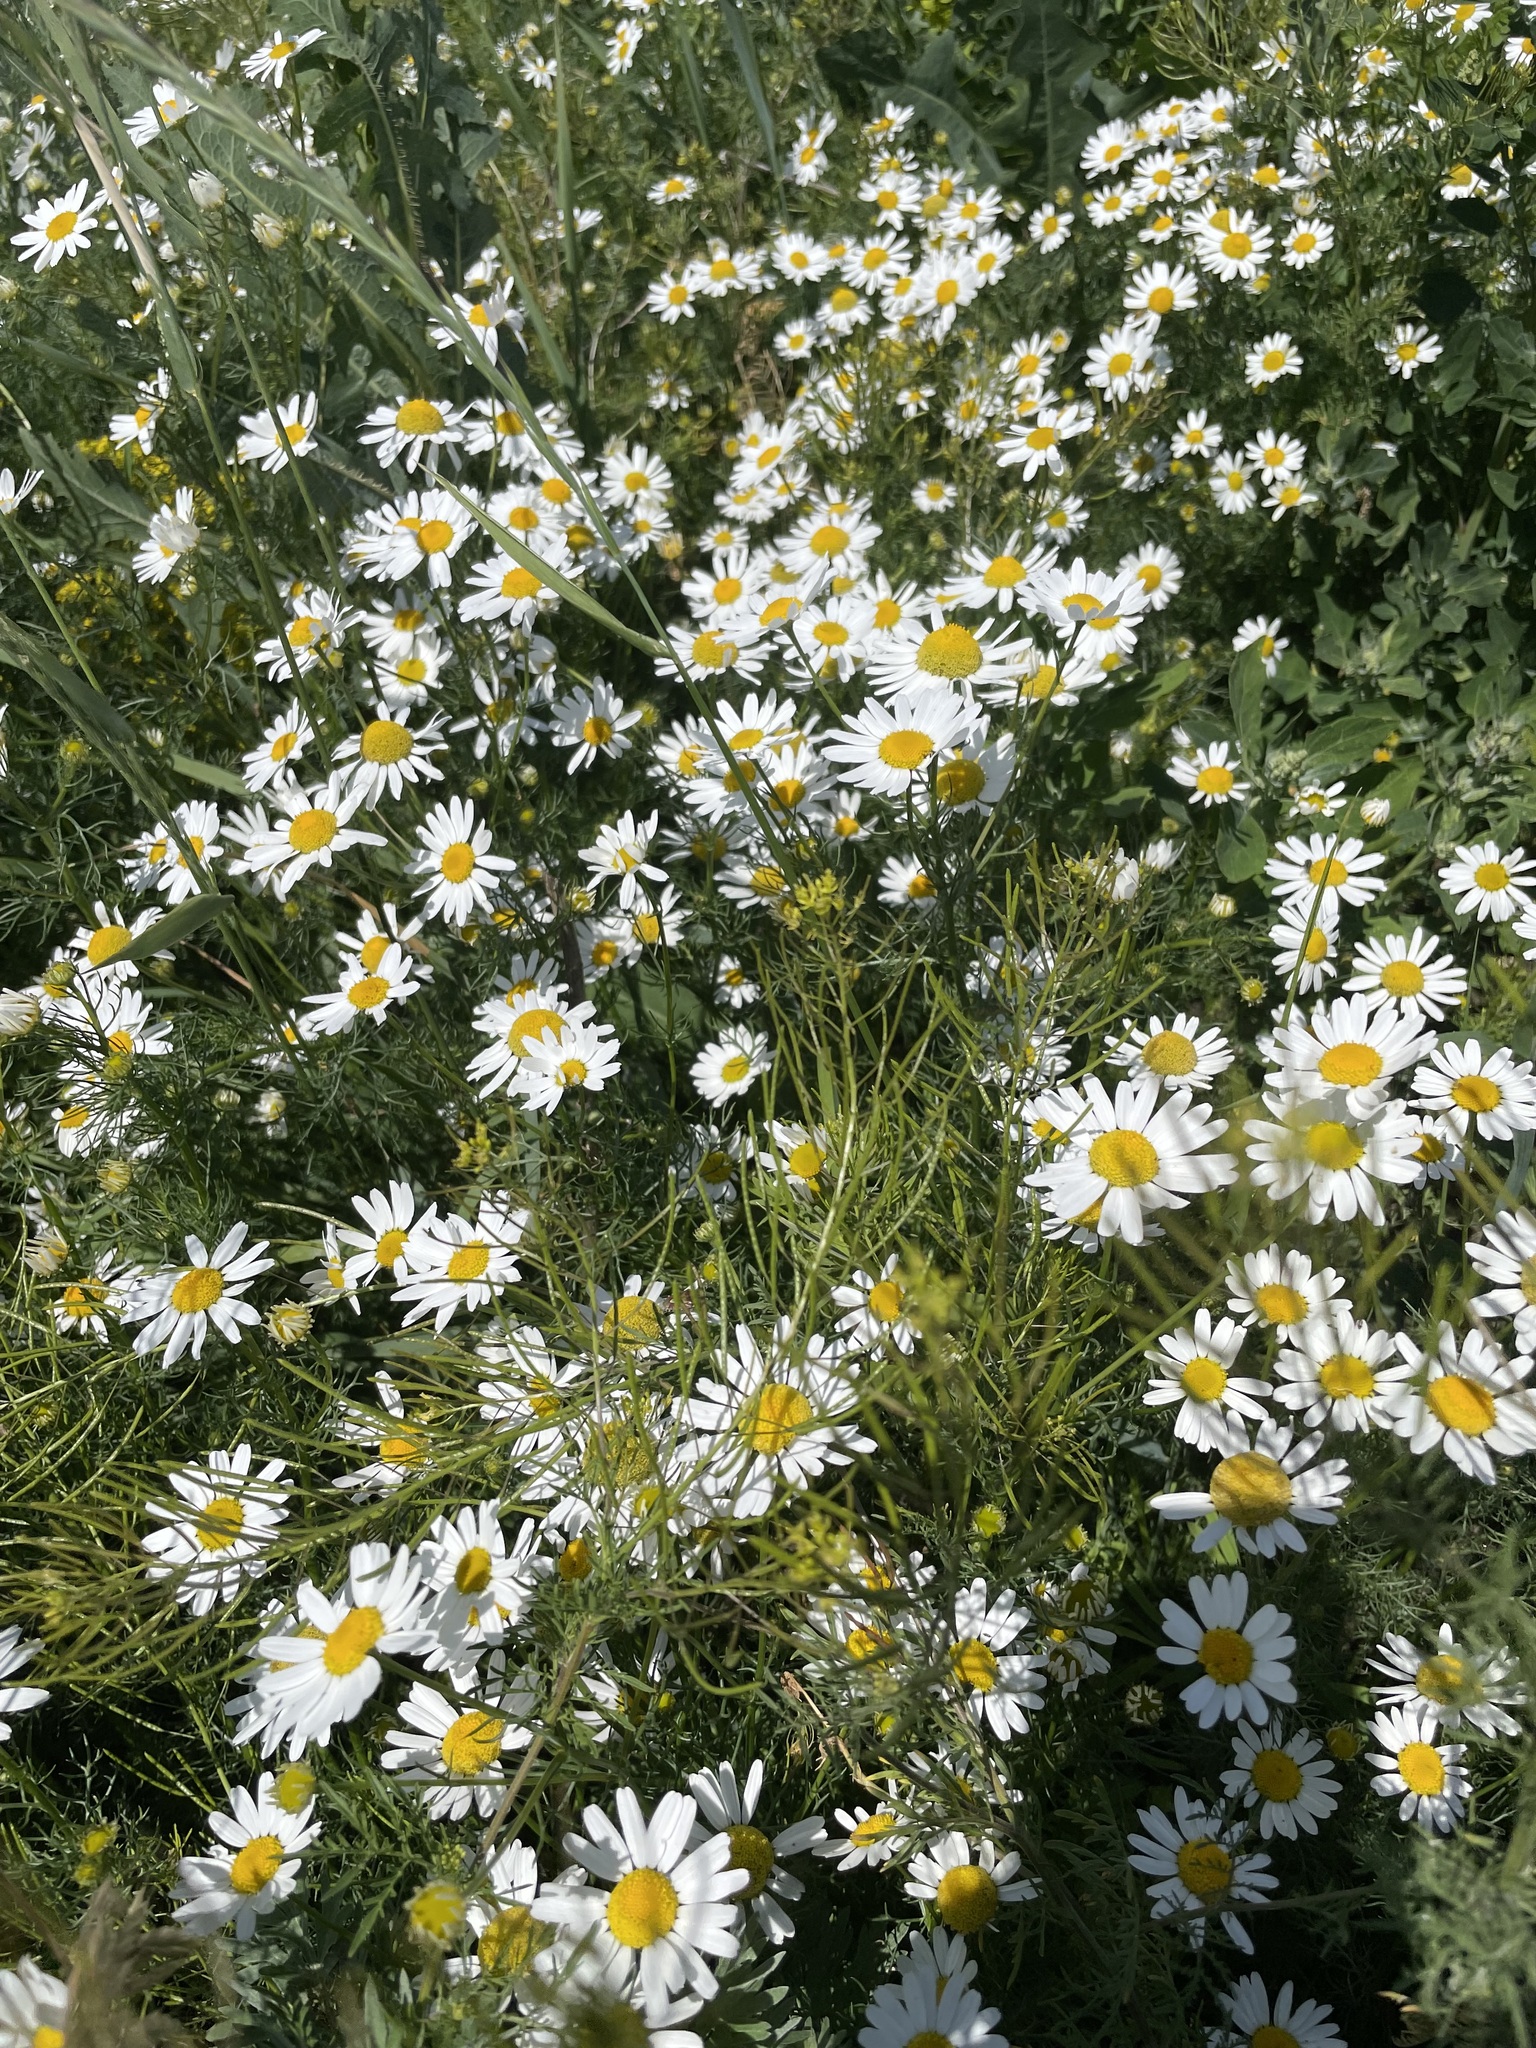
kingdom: Plantae
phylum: Tracheophyta
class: Magnoliopsida
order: Asterales
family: Asteraceae
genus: Tripleurospermum
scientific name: Tripleurospermum inodorum
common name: Scentless mayweed
